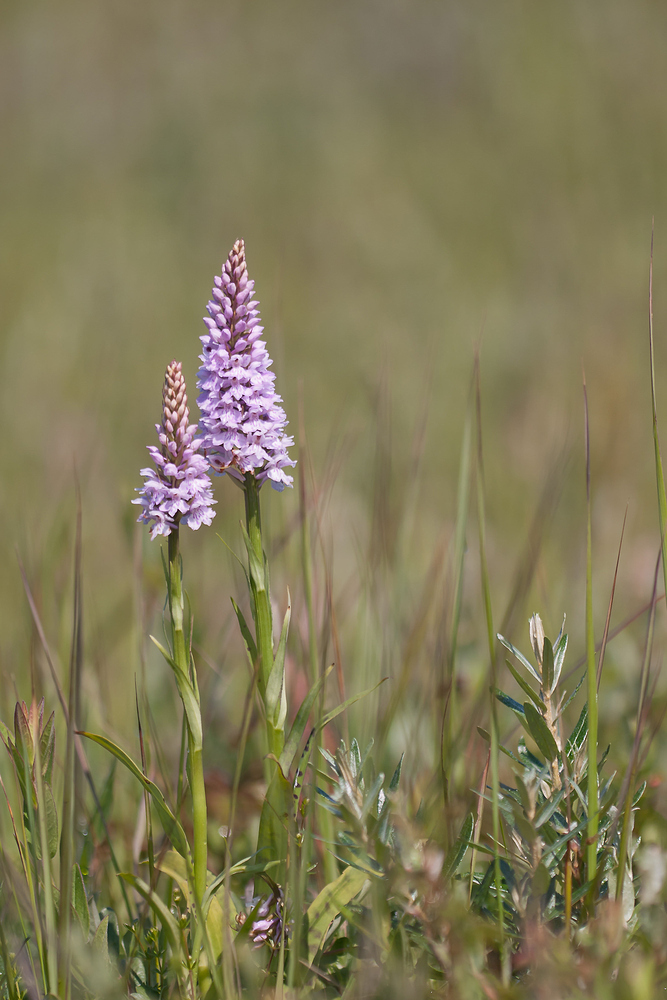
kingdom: Plantae
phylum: Tracheophyta
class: Liliopsida
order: Asparagales
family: Orchidaceae
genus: Dactylorhiza
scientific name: Dactylorhiza maculata
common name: Heath spotted-orchid
